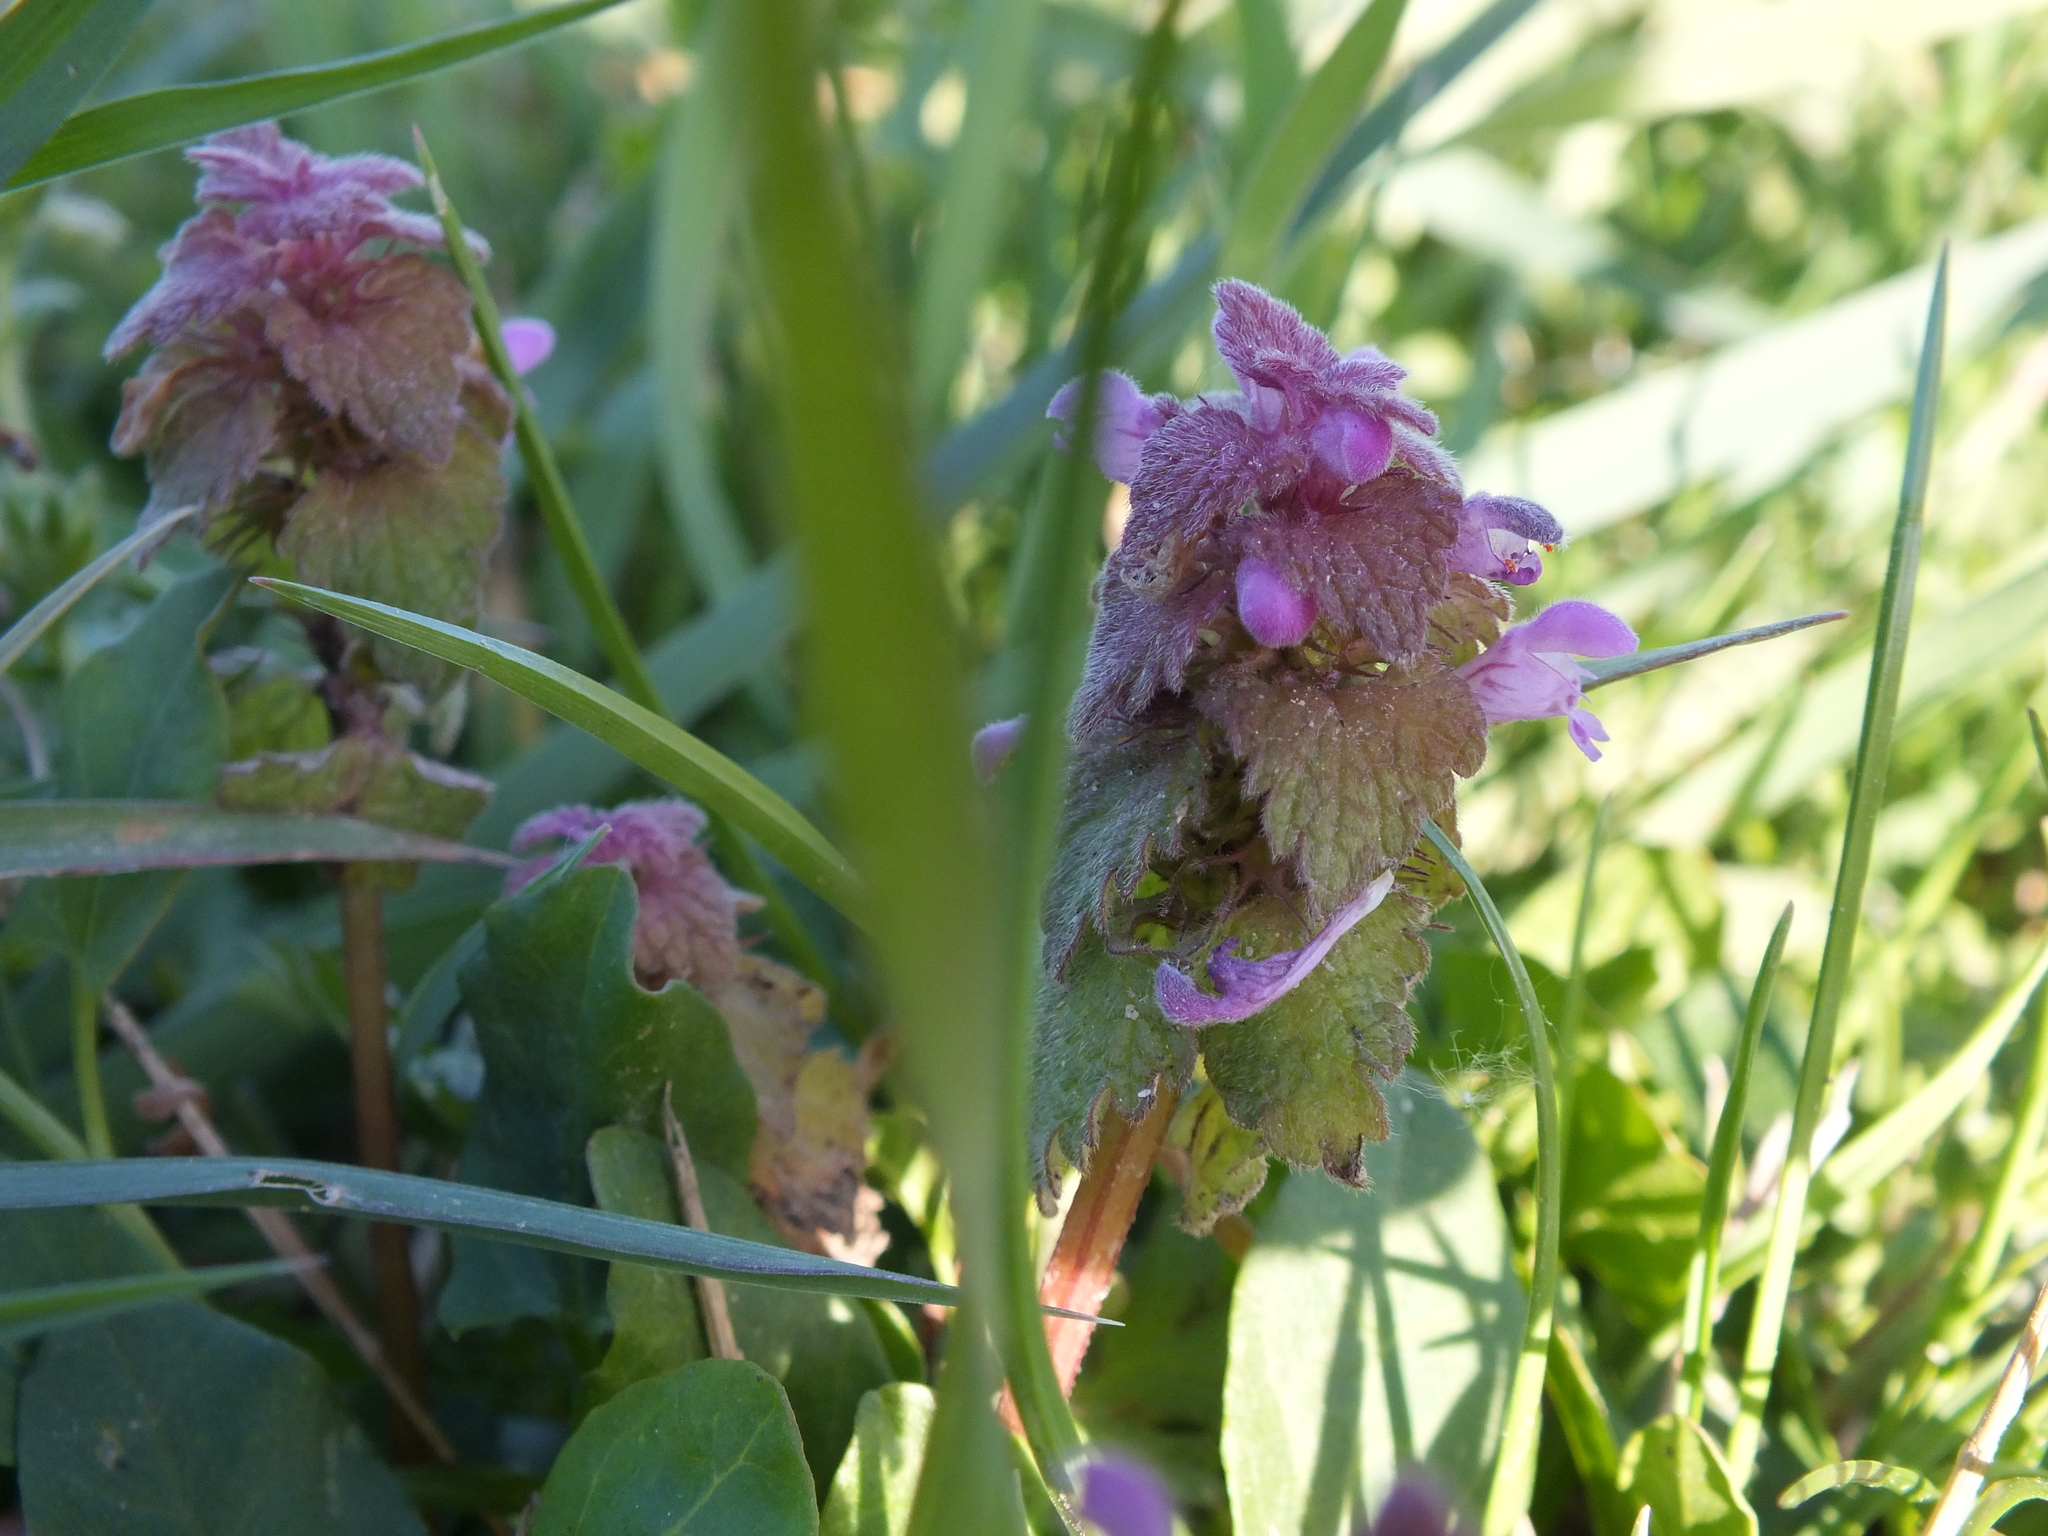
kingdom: Plantae
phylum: Tracheophyta
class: Magnoliopsida
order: Lamiales
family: Lamiaceae
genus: Lamium
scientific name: Lamium purpureum
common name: Red dead-nettle
